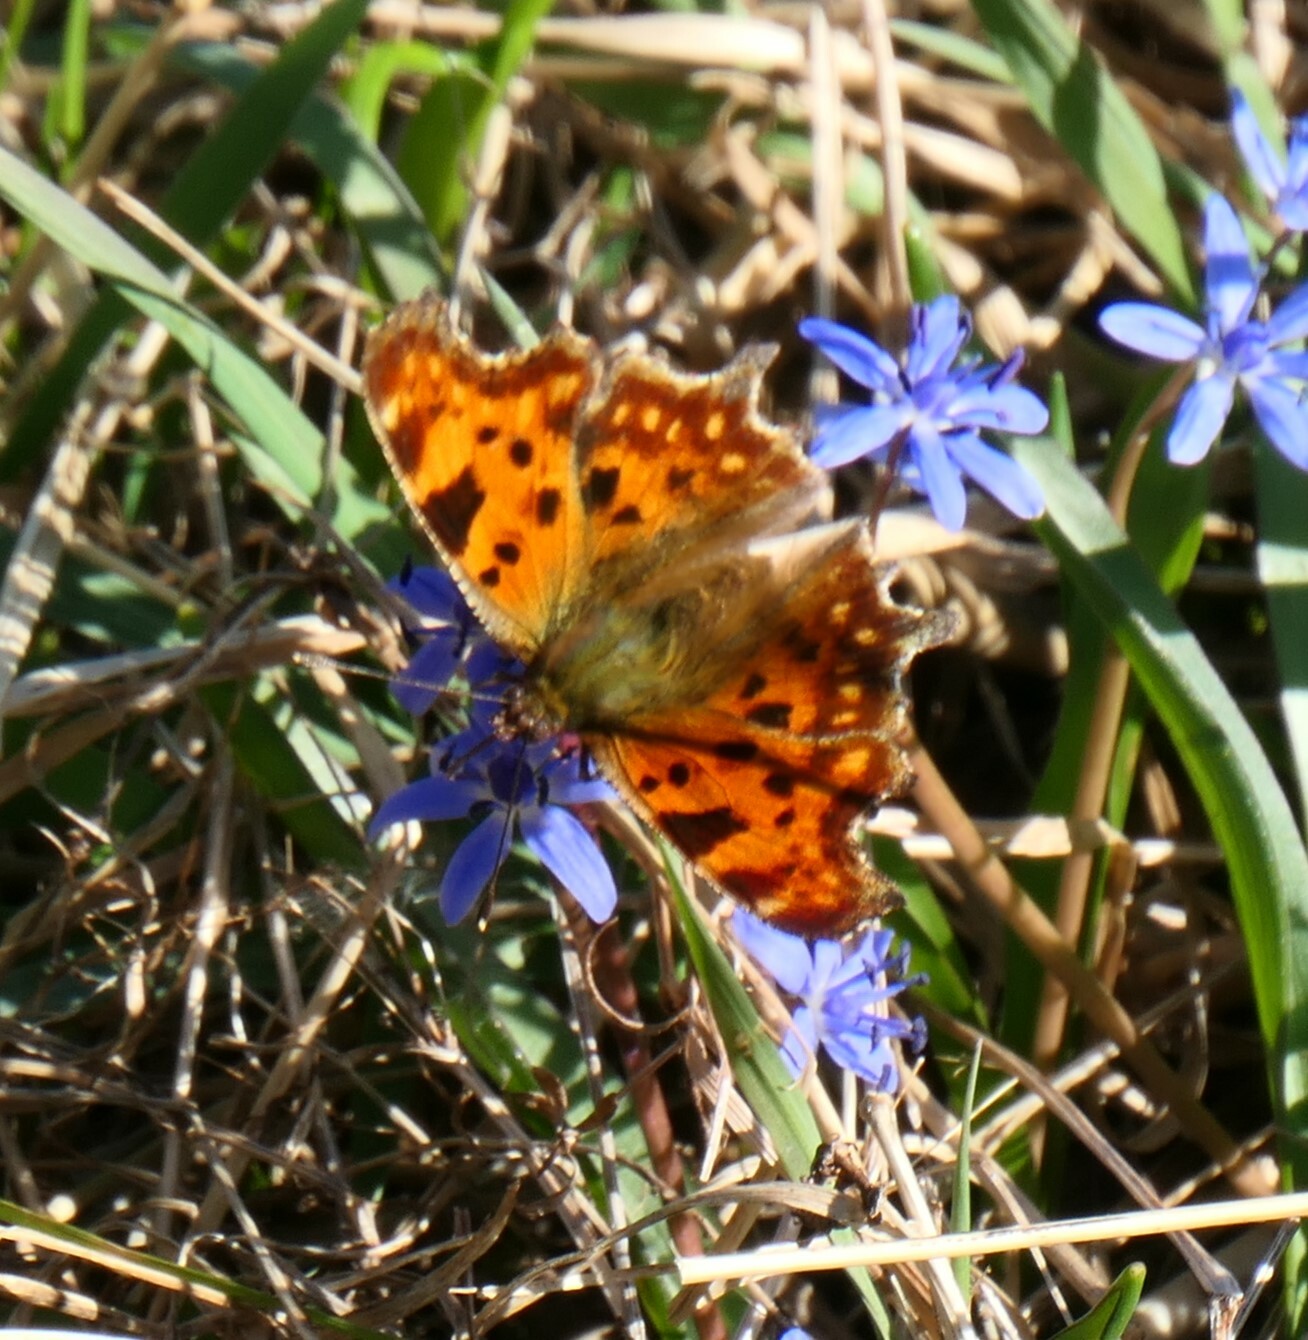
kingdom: Animalia
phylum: Arthropoda
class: Insecta
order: Lepidoptera
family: Nymphalidae
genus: Polygonia
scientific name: Polygonia c-album
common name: Comma
